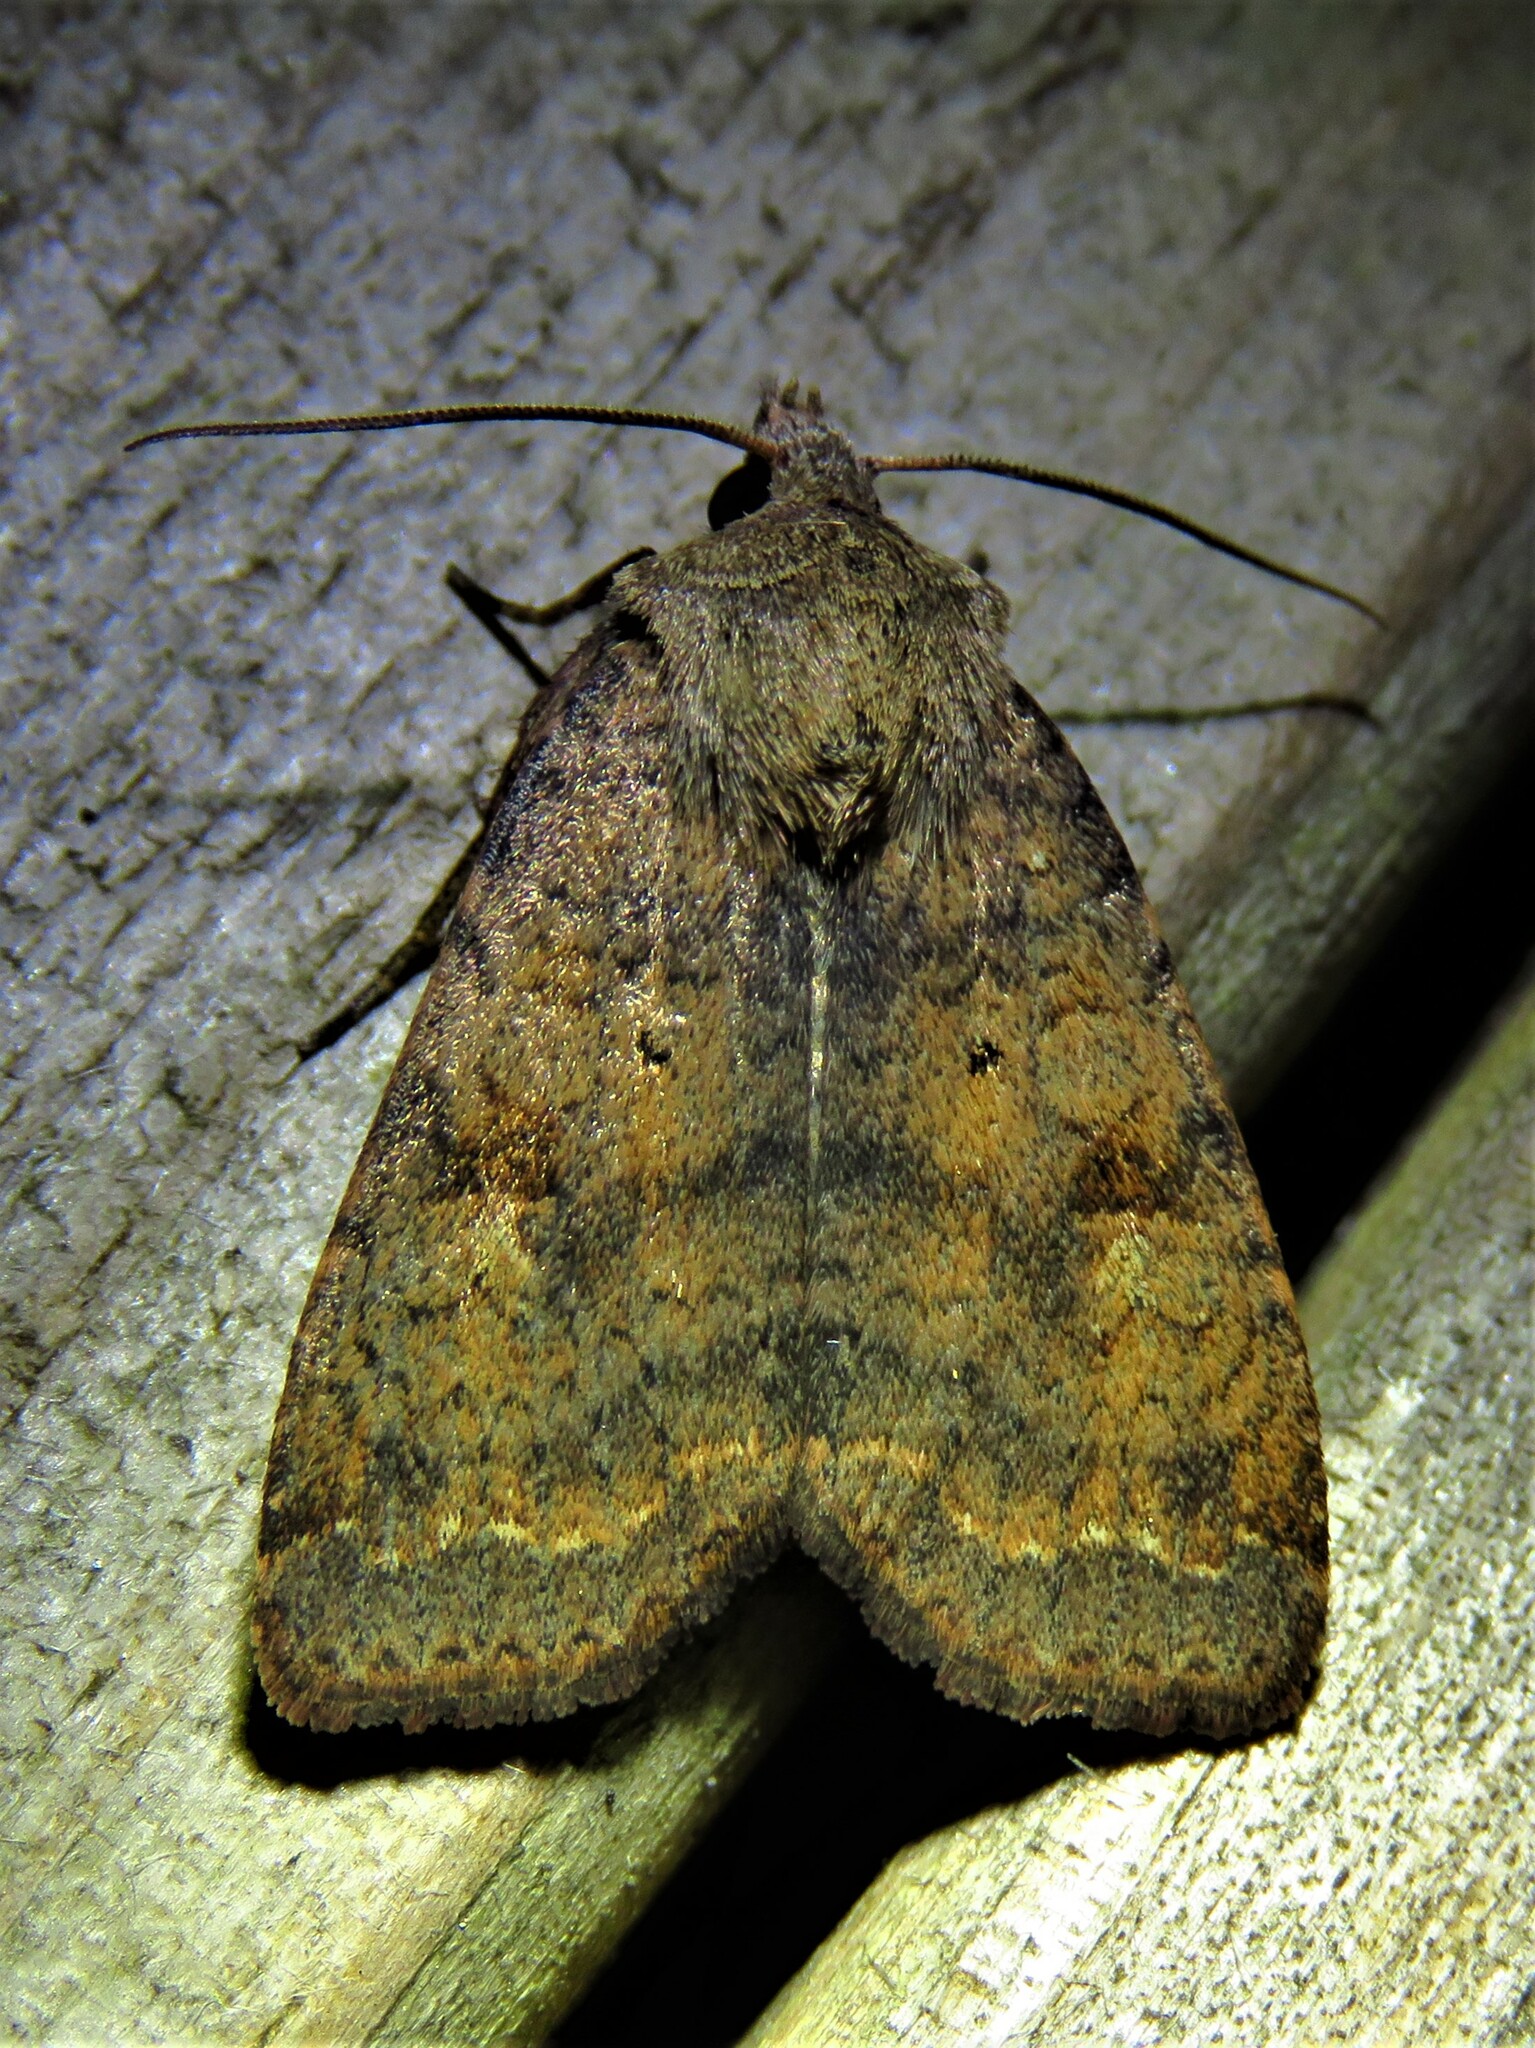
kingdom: Animalia
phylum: Arthropoda
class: Insecta
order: Lepidoptera
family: Noctuidae
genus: Diarsia
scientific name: Diarsia dahlii
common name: Barred chestnut
